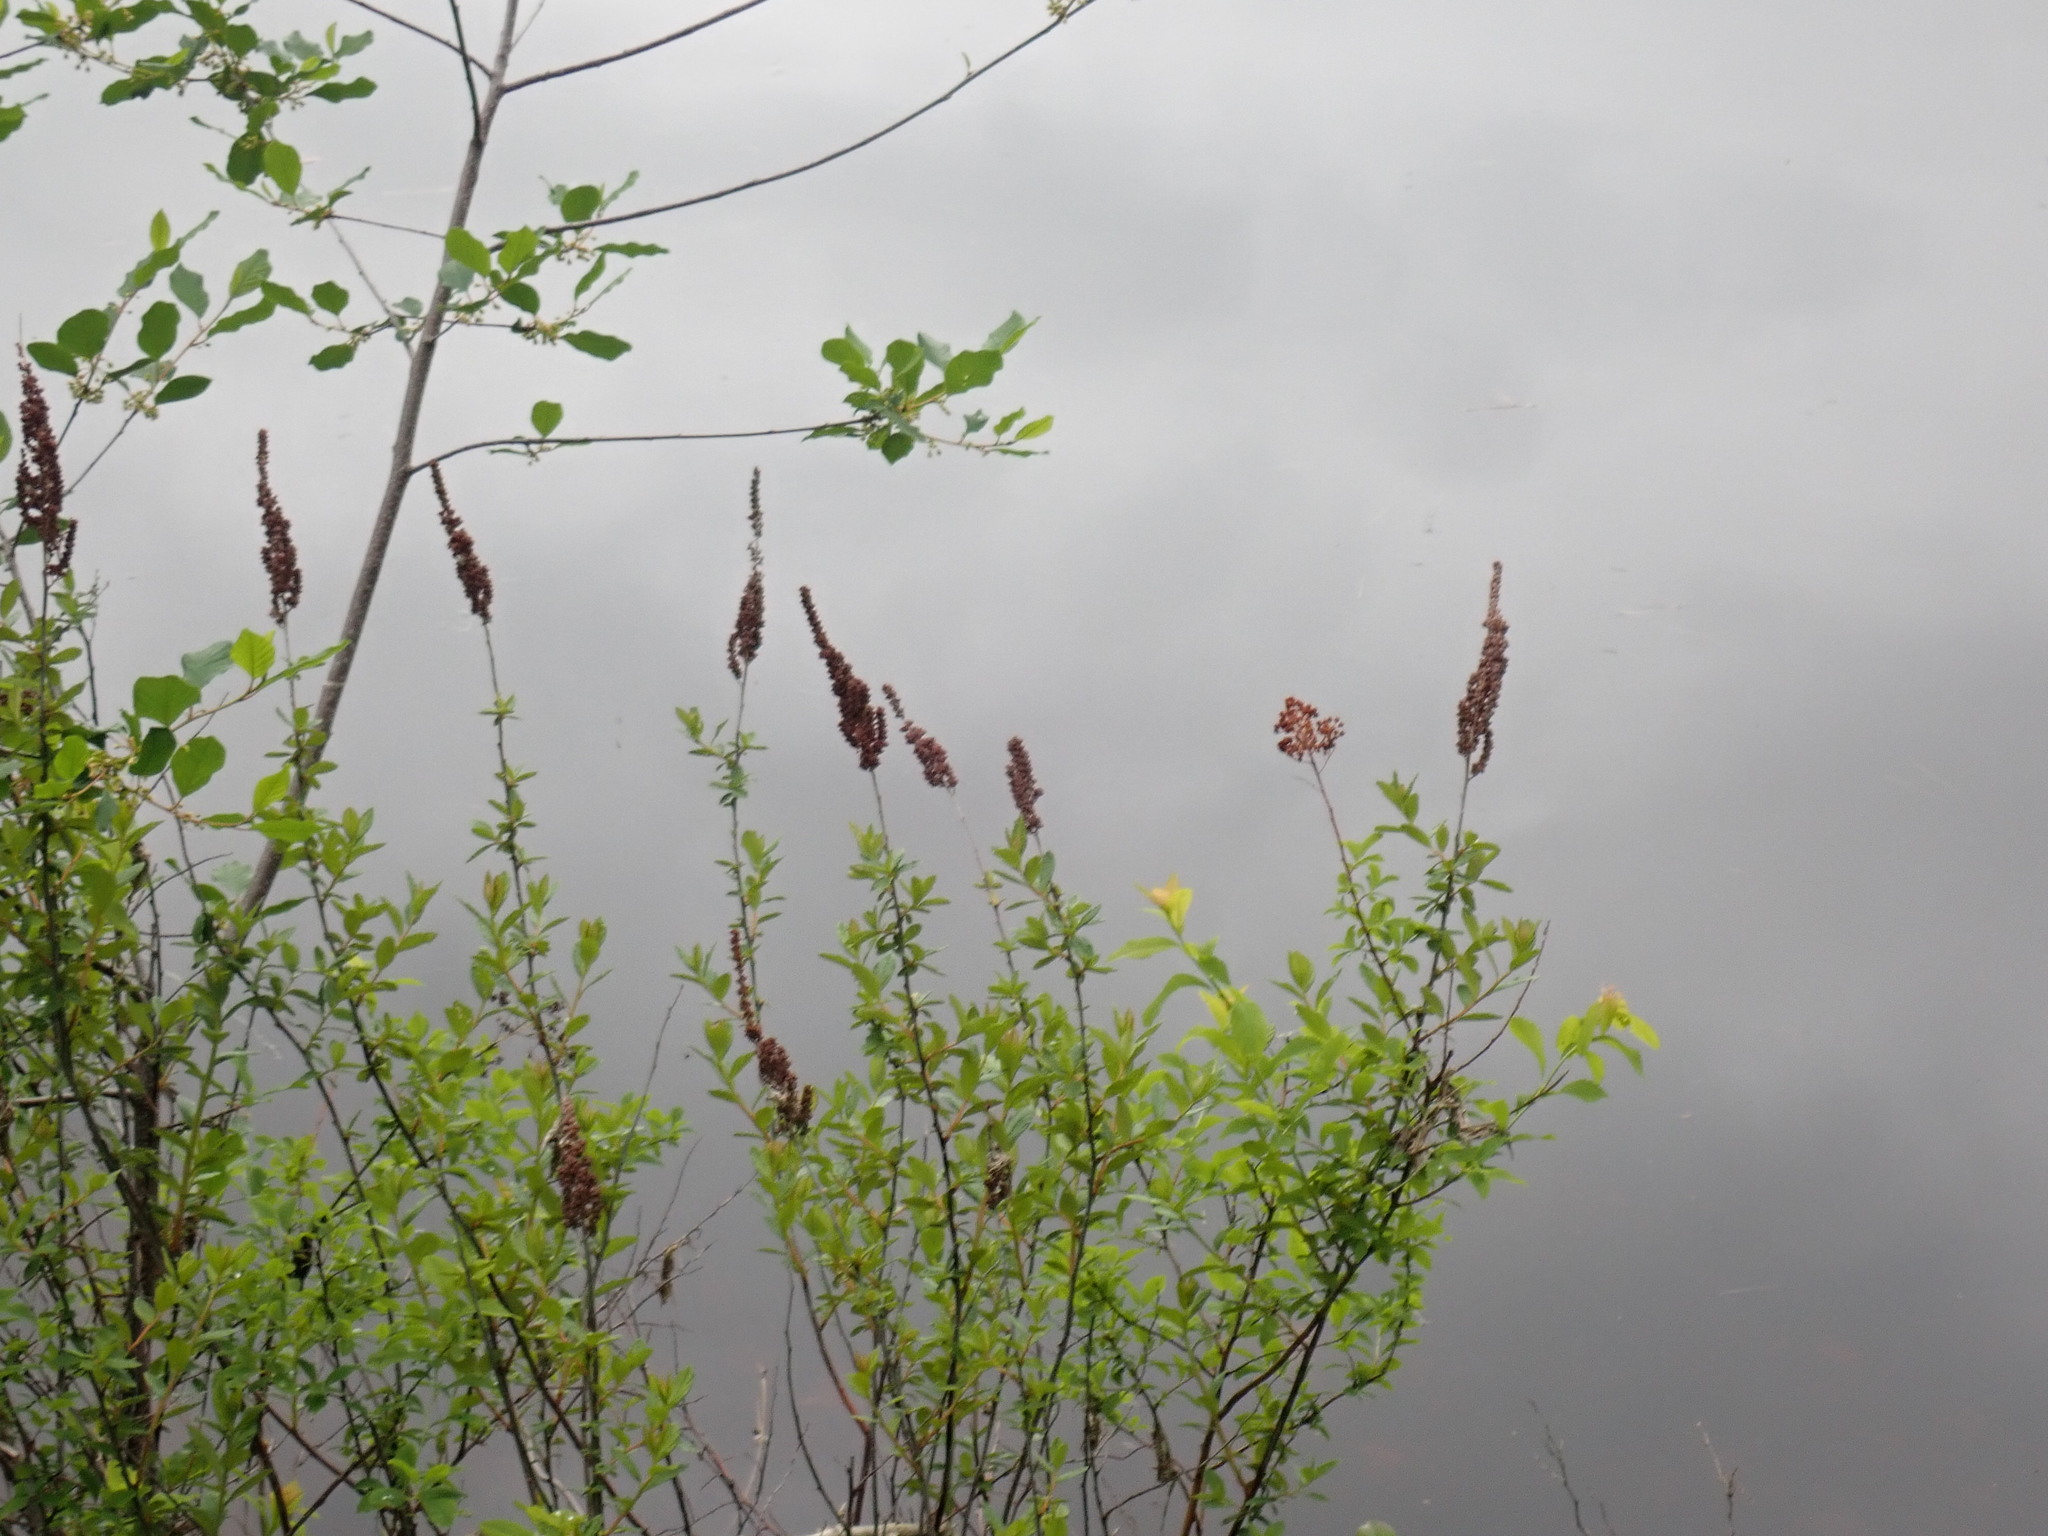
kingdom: Plantae
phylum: Tracheophyta
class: Magnoliopsida
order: Rosales
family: Rosaceae
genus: Spiraea
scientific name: Spiraea tomentosa
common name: Hardhack
